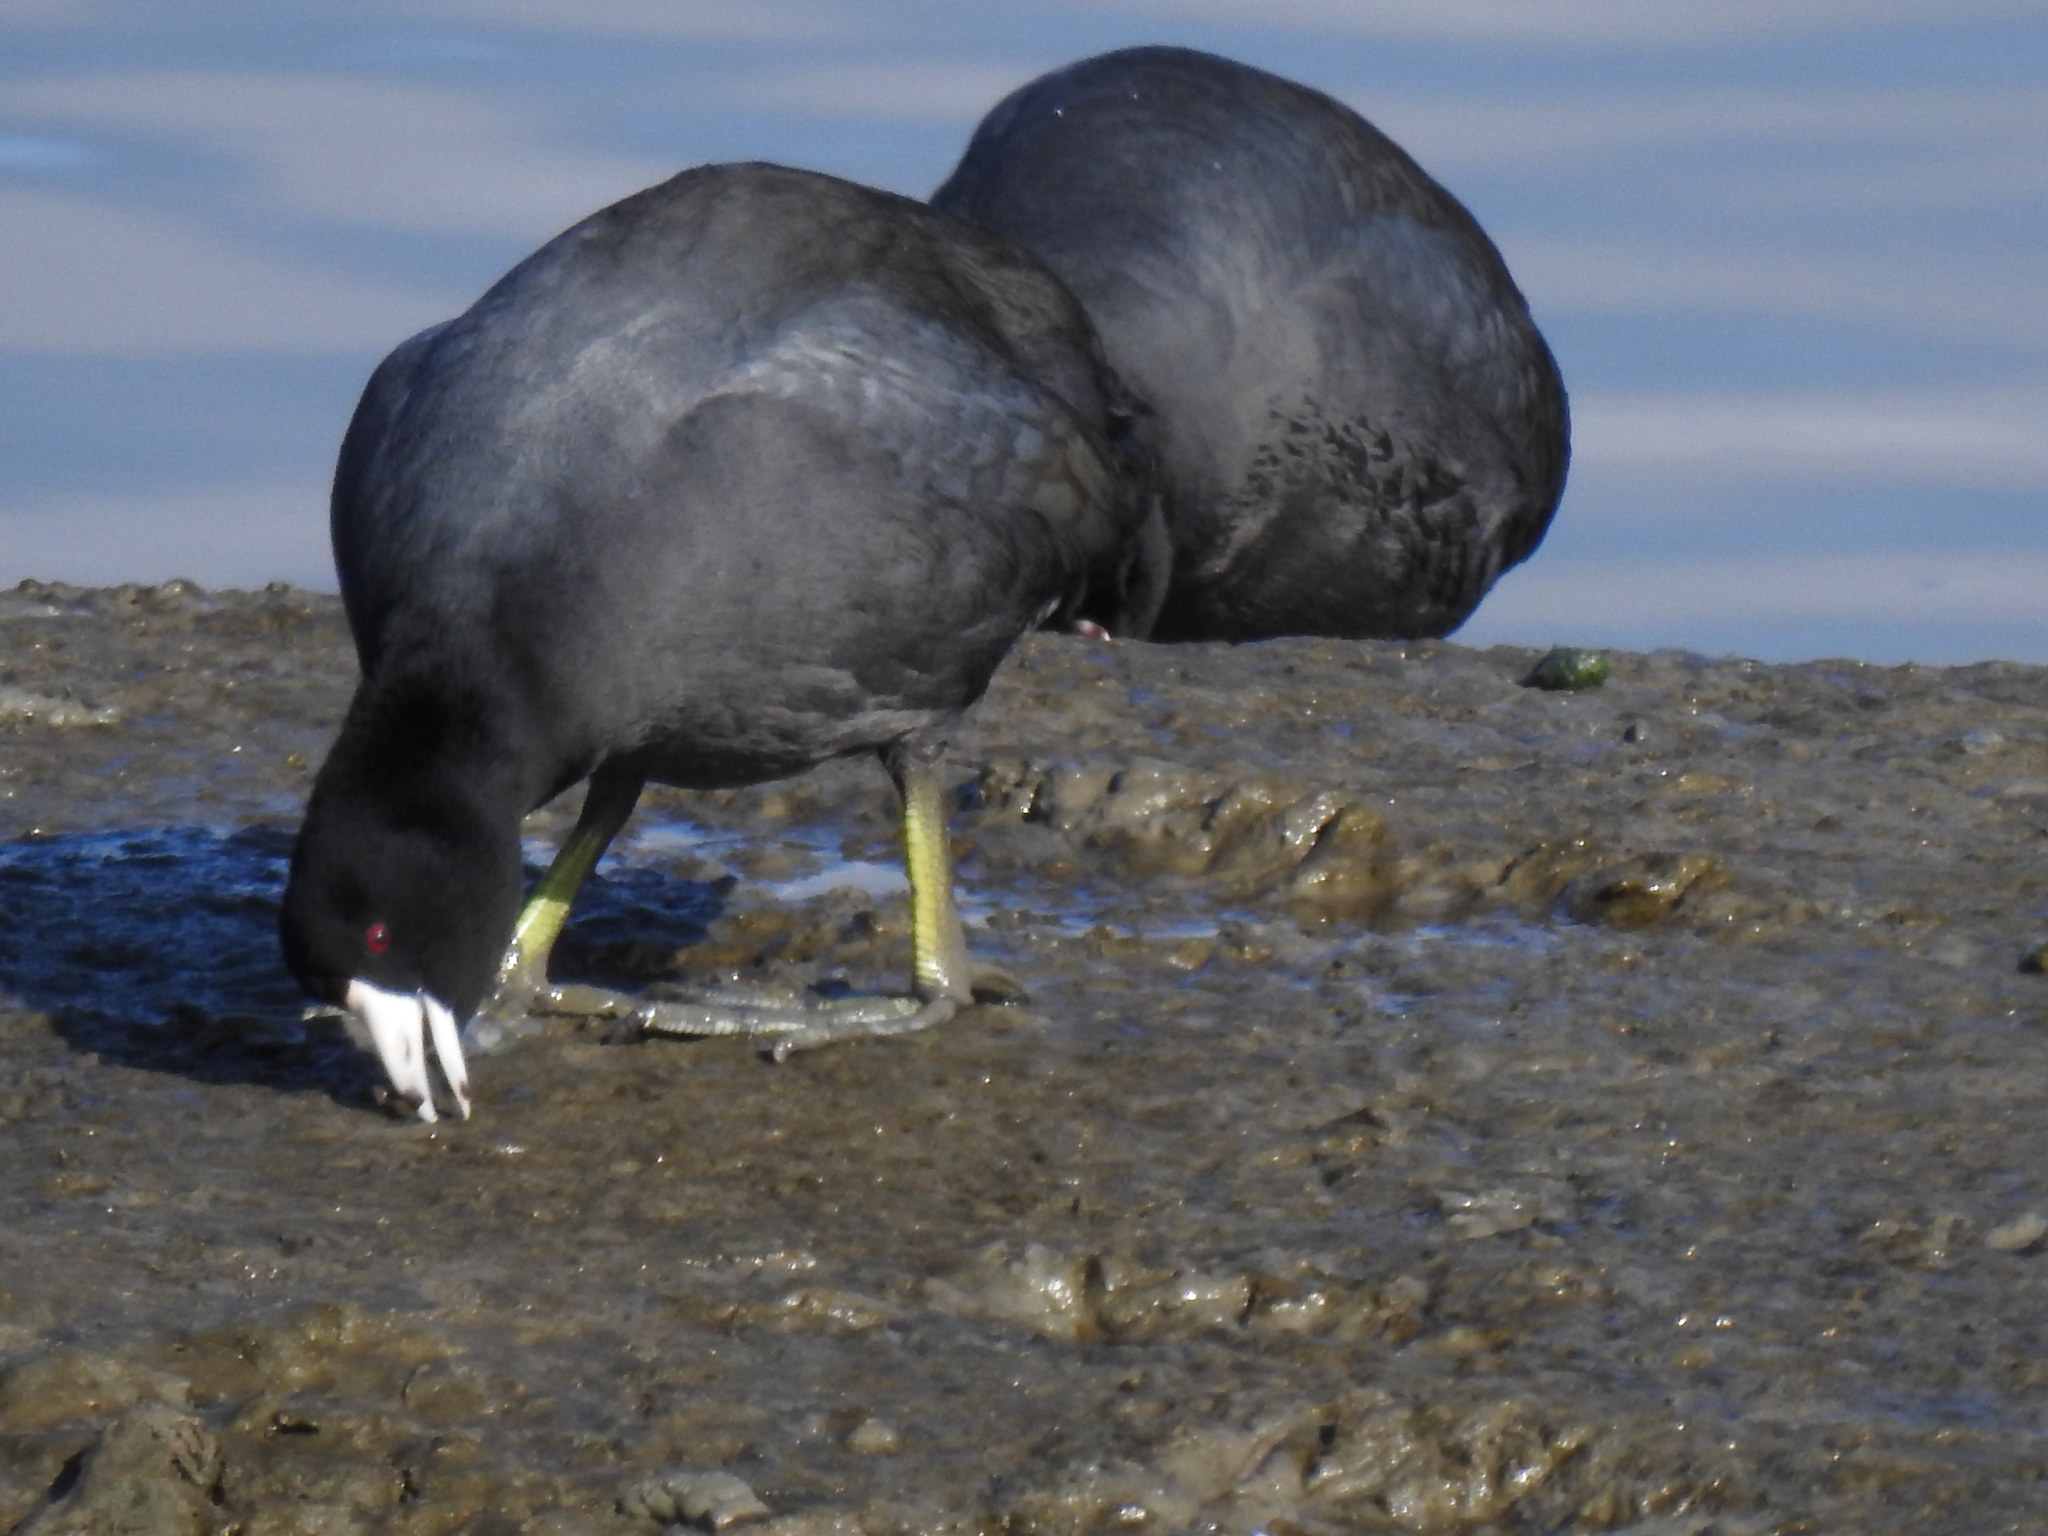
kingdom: Animalia
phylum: Chordata
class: Aves
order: Gruiformes
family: Rallidae
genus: Fulica
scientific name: Fulica americana
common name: American coot
